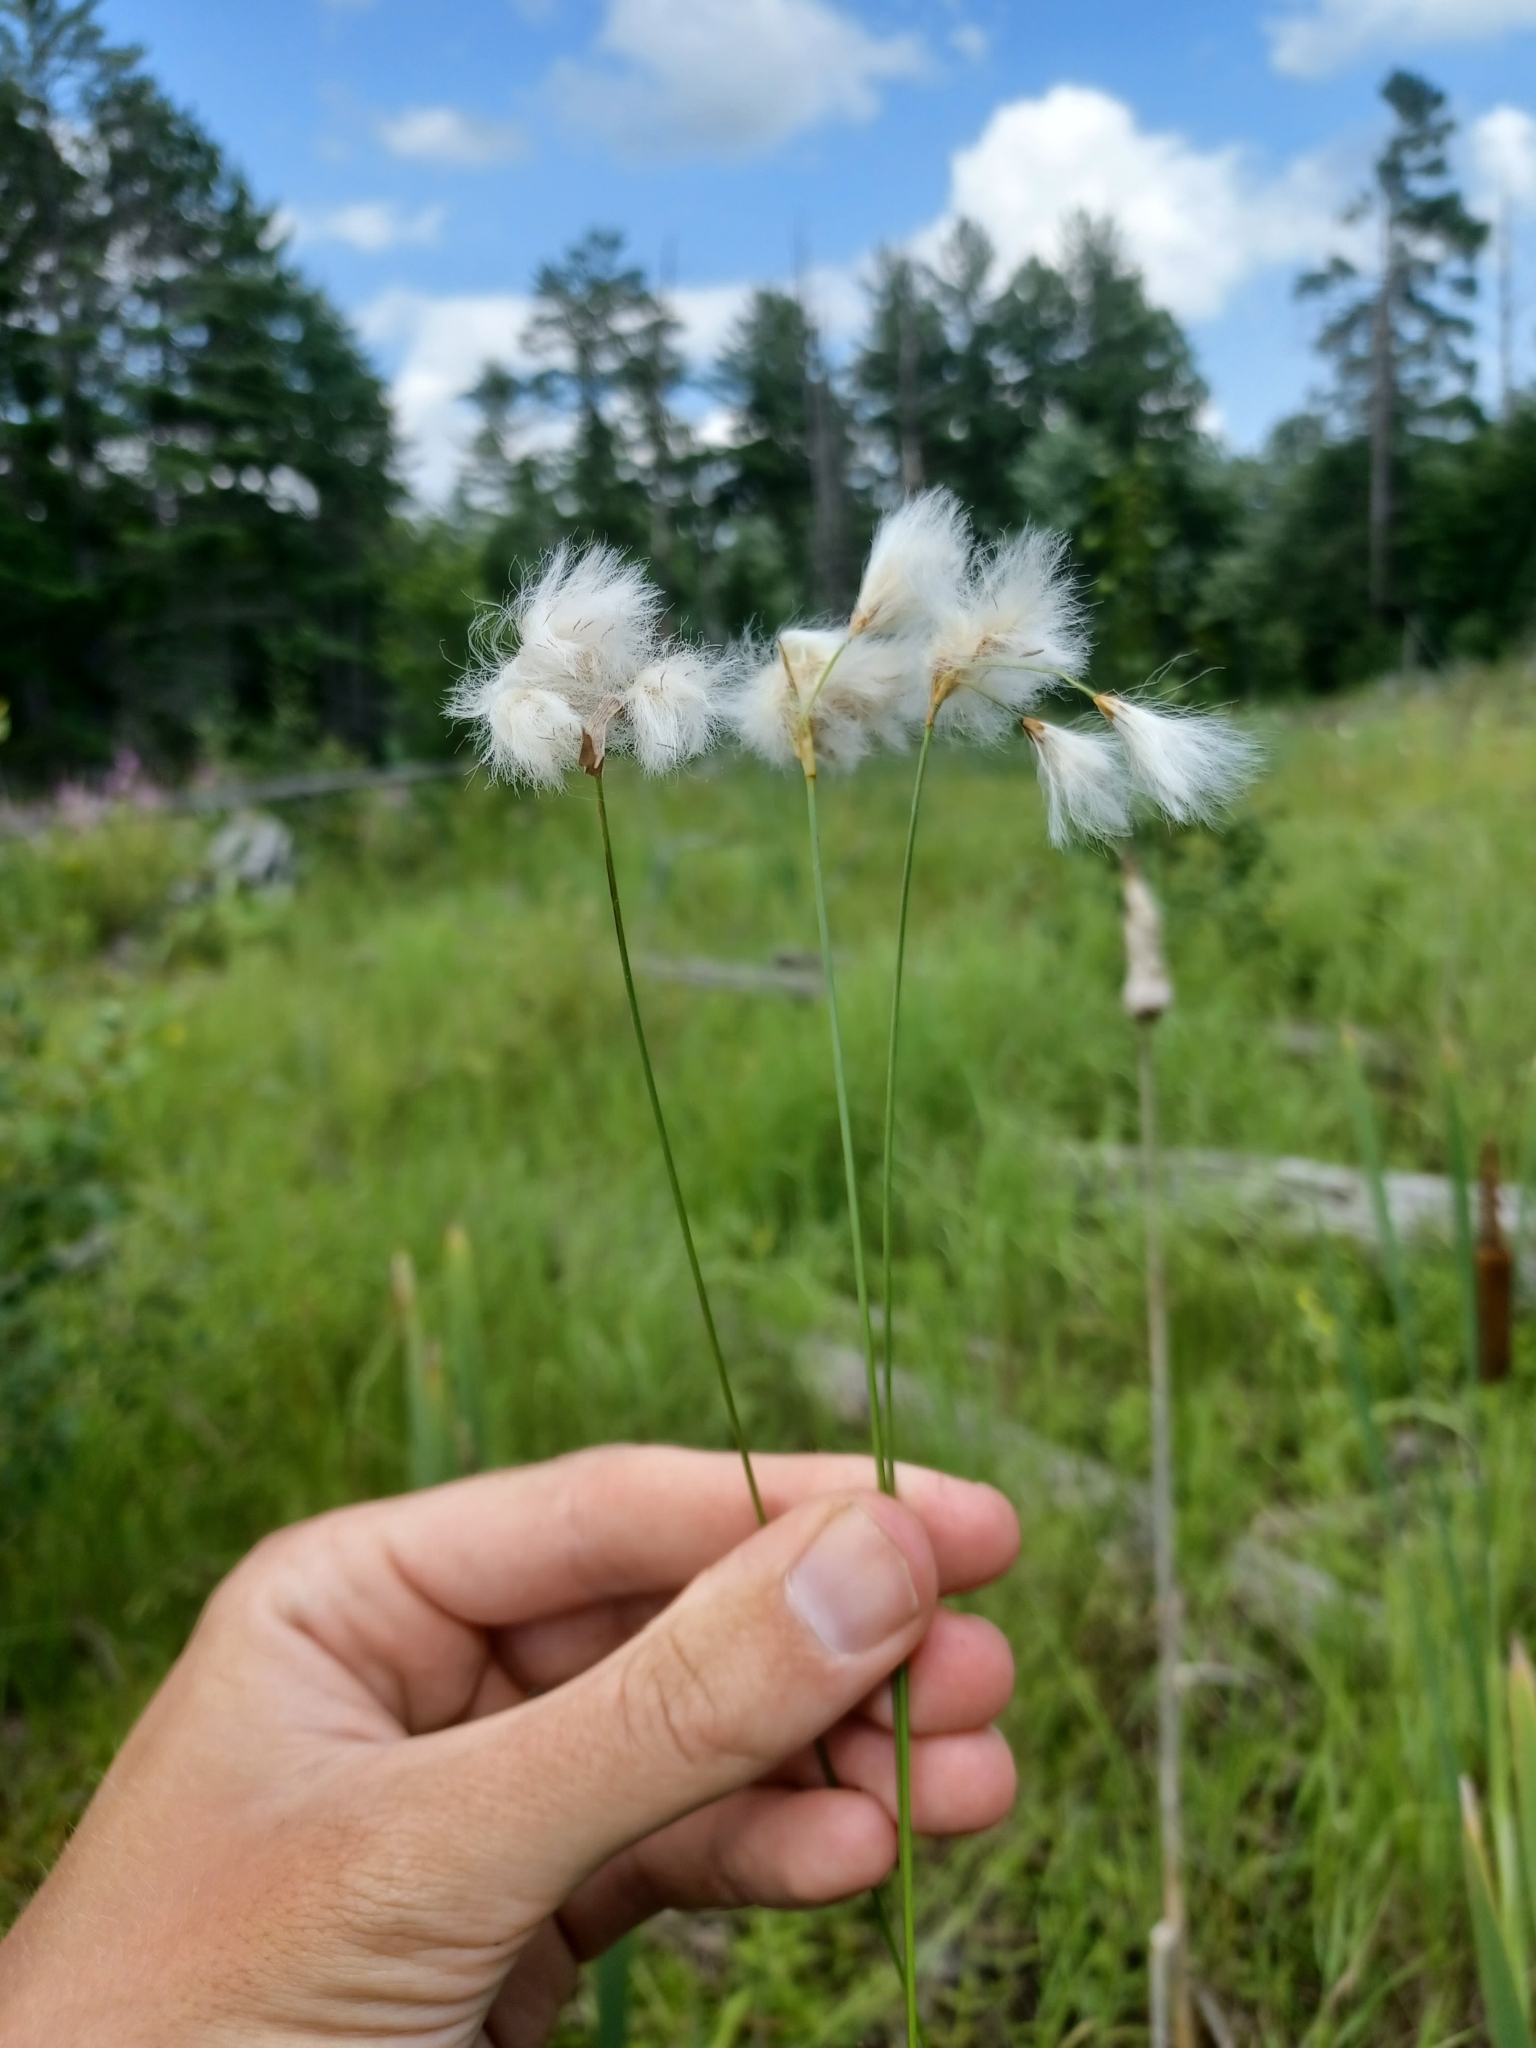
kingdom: Plantae
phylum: Tracheophyta
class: Liliopsida
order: Poales
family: Cyperaceae
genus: Eriophorum
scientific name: Eriophorum tenellum
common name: Few-nerved cottongrass
